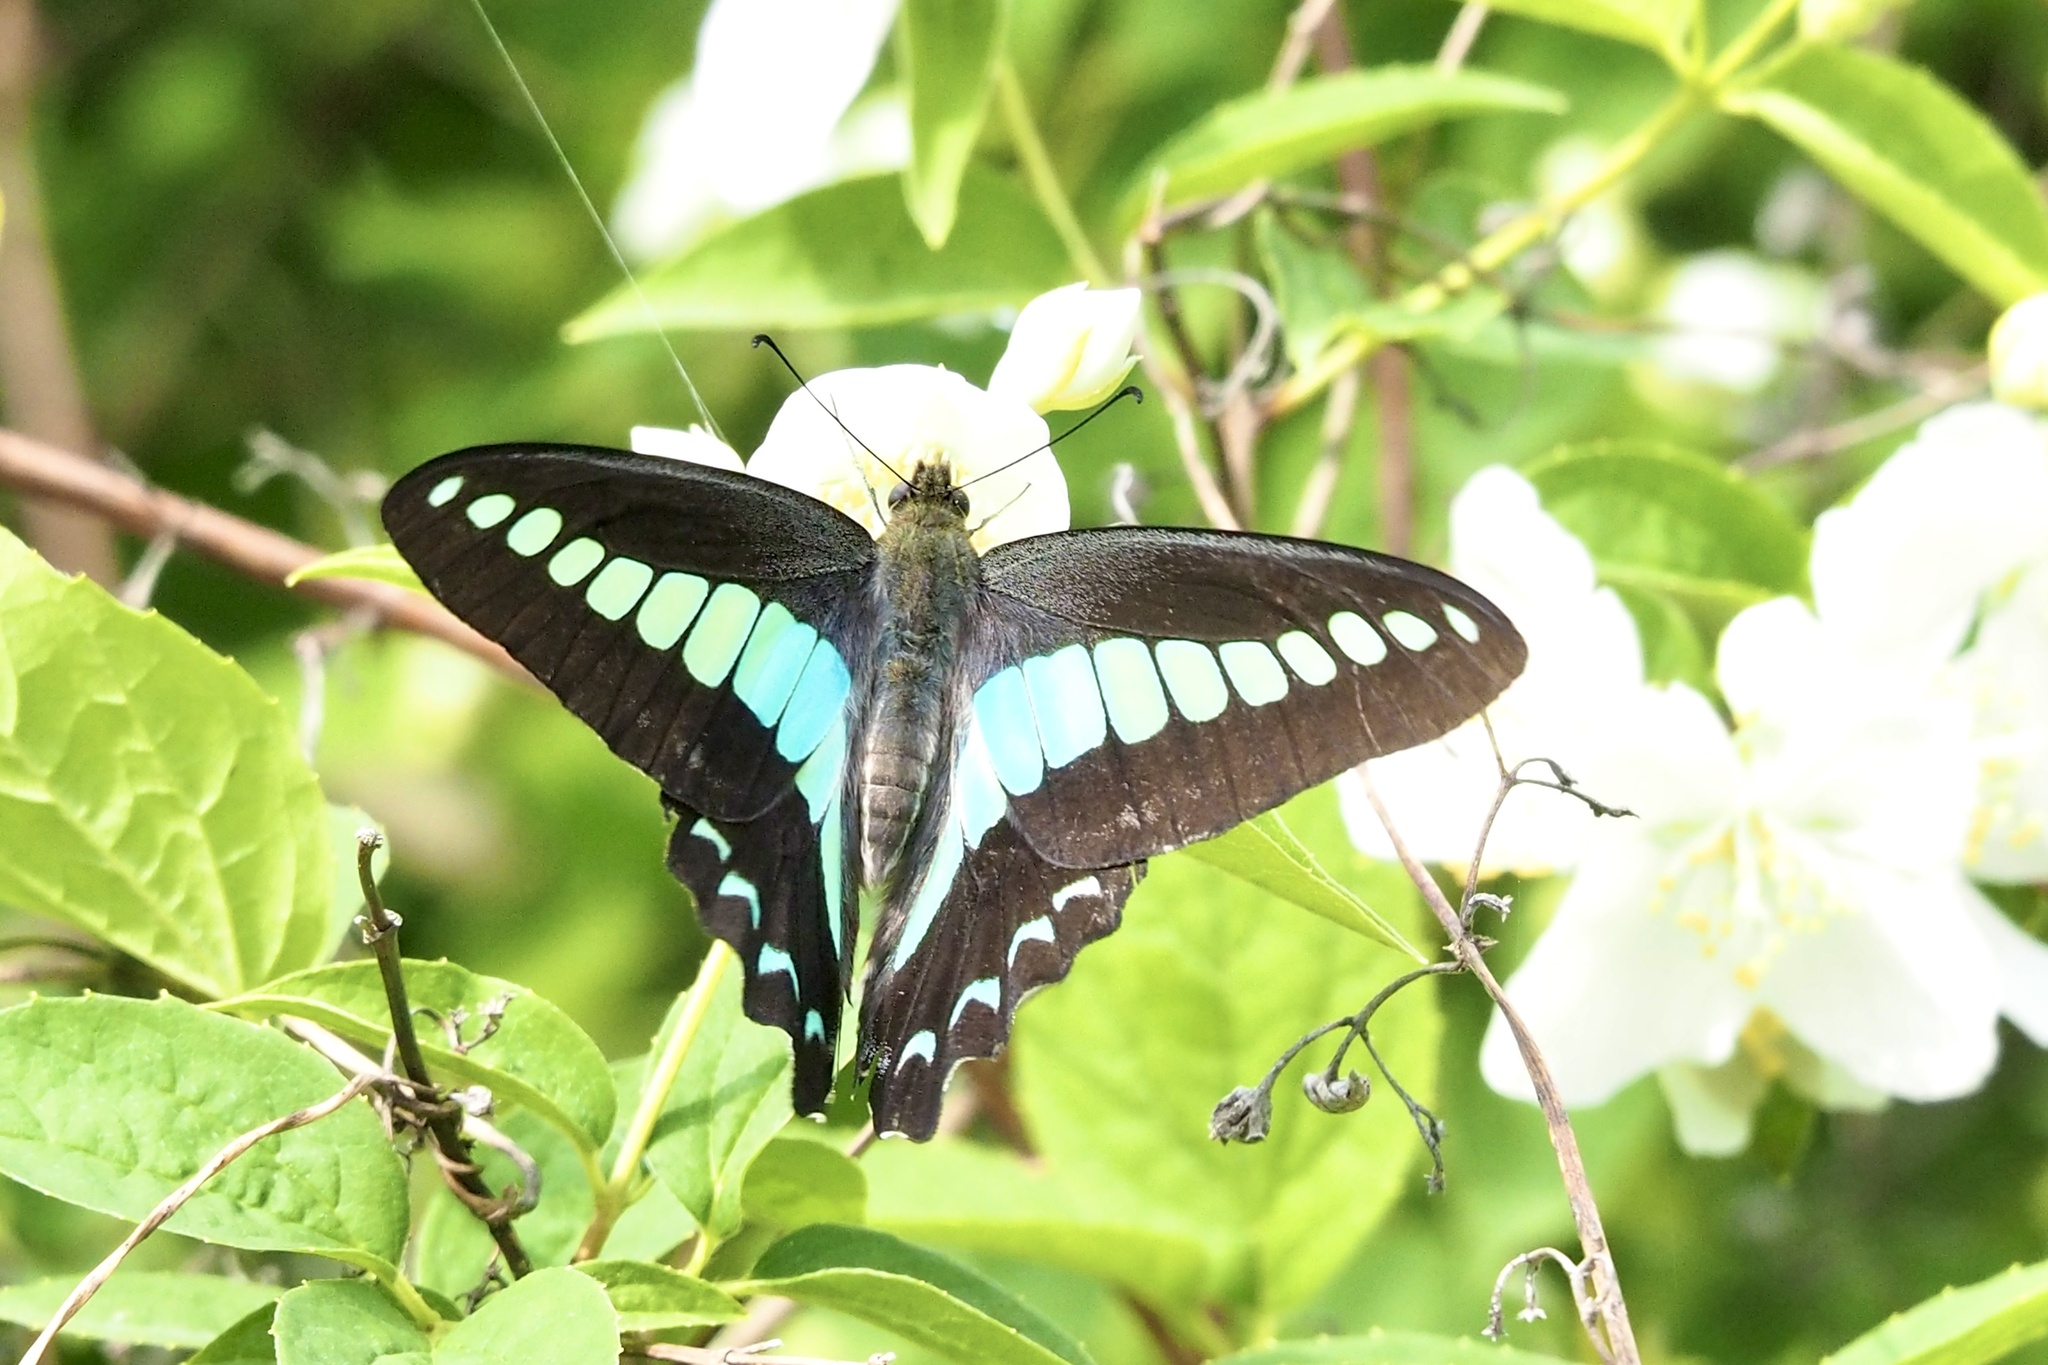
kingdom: Fungi
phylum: Ascomycota
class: Sordariomycetes
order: Microascales
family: Microascaceae
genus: Graphium
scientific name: Graphium sarpedon
